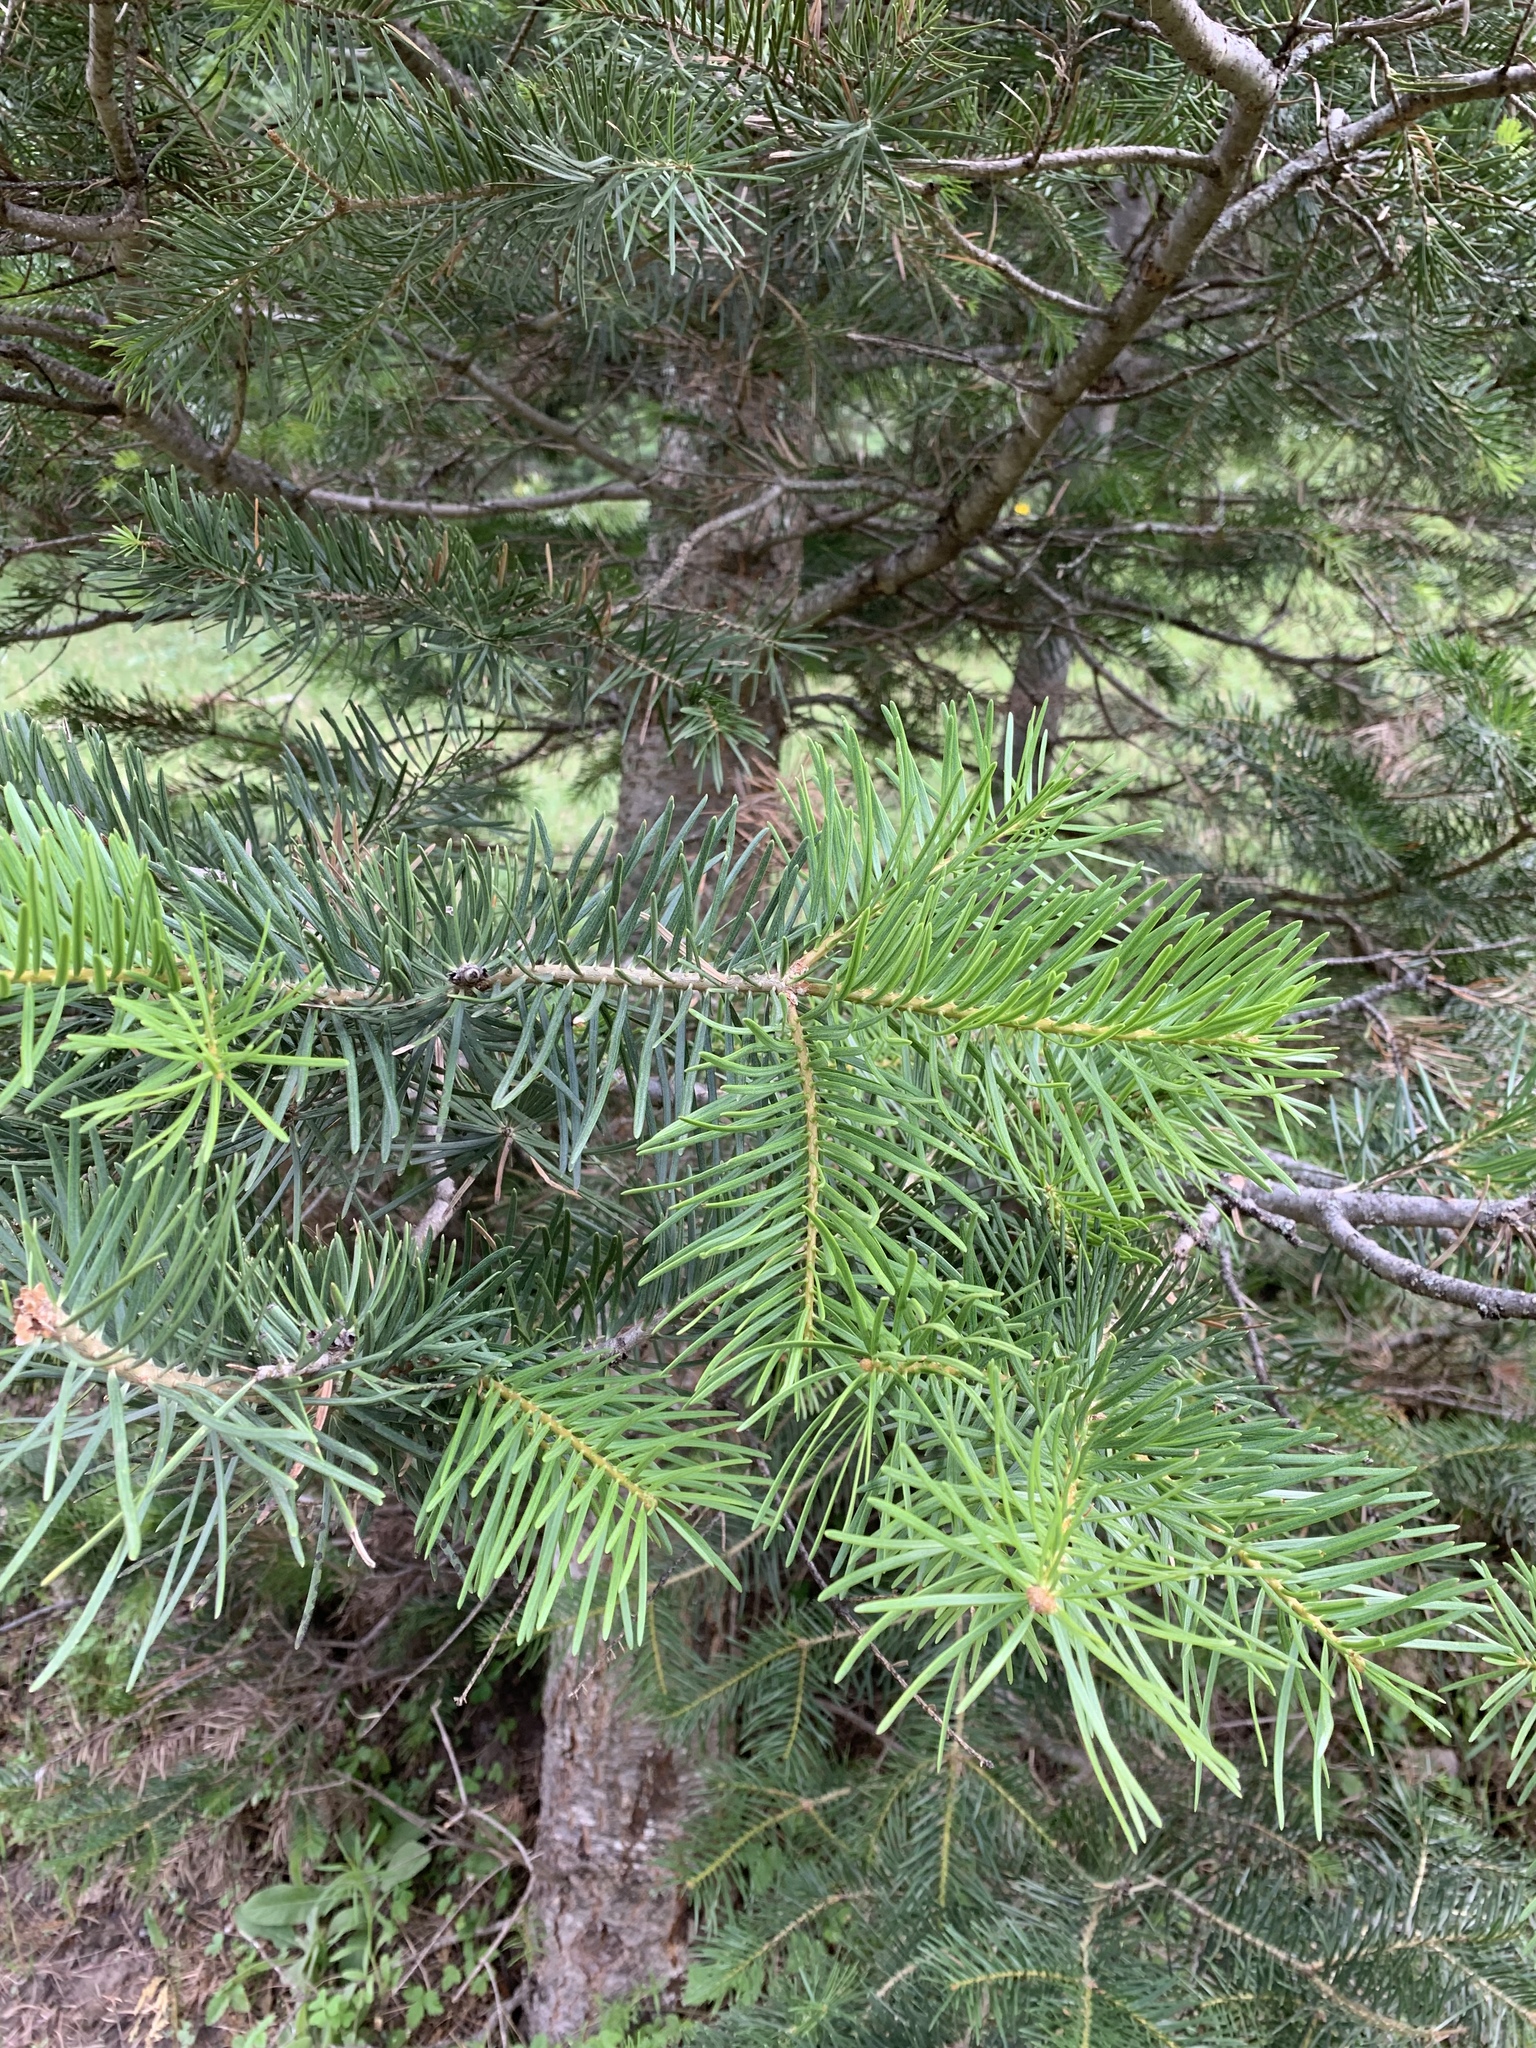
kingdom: Plantae
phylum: Tracheophyta
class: Pinopsida
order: Pinales
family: Pinaceae
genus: Abies
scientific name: Abies concolor
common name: Colorado fir
